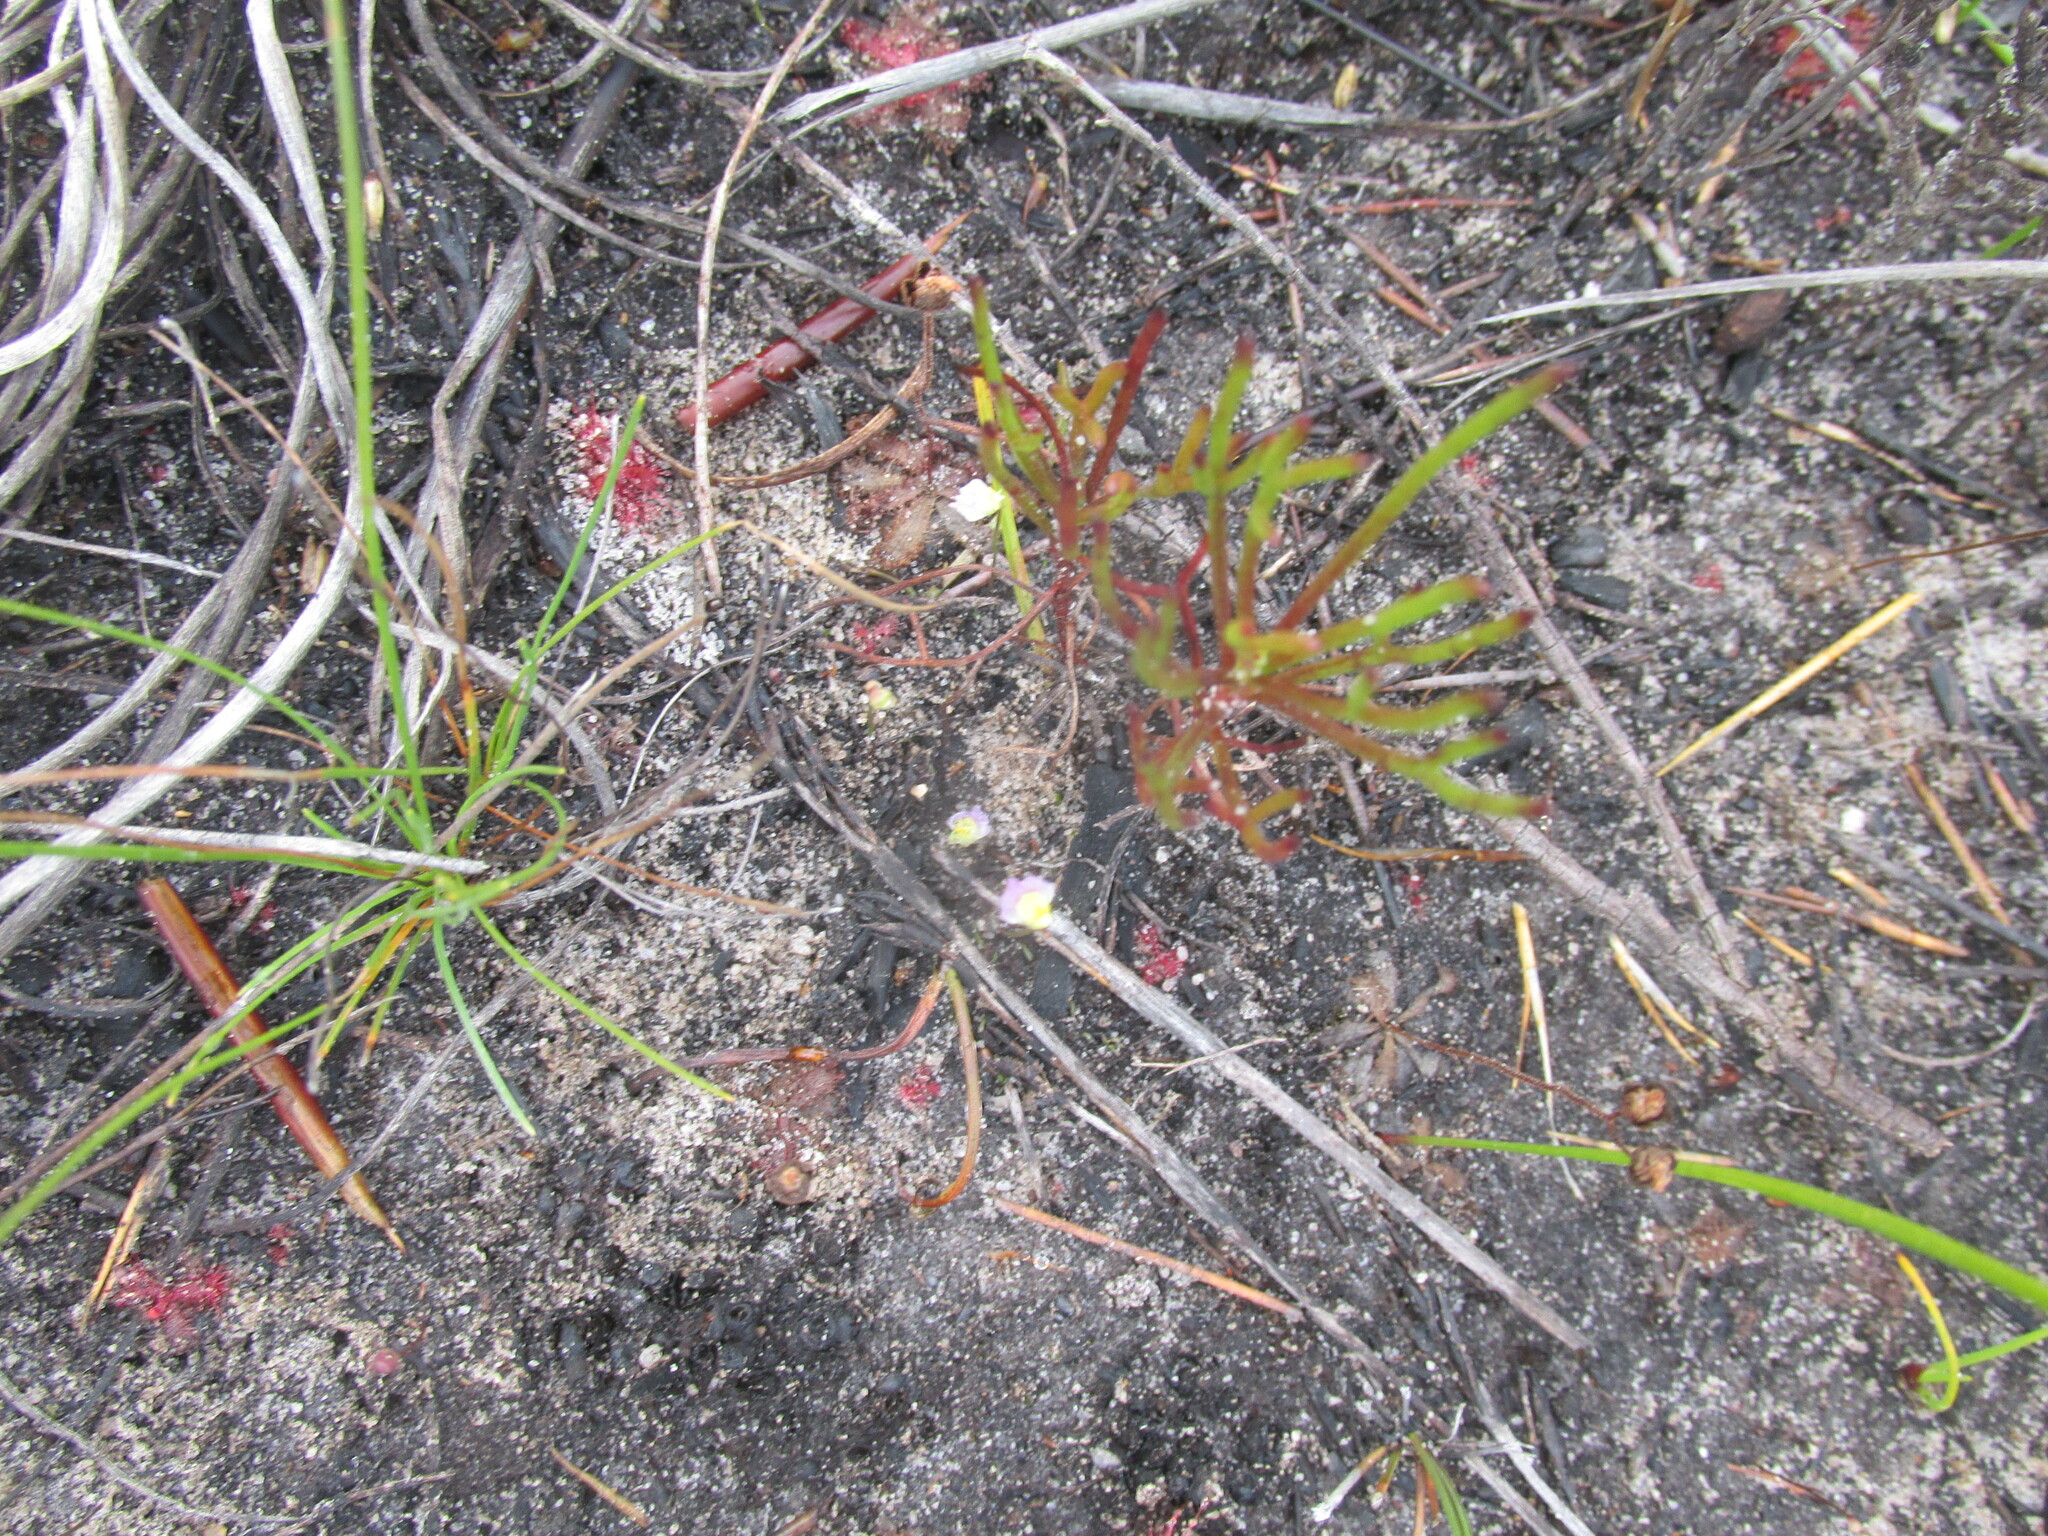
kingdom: Plantae
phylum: Tracheophyta
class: Magnoliopsida
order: Lamiales
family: Lentibulariaceae
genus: Utricularia
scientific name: Utricularia bisquamata
